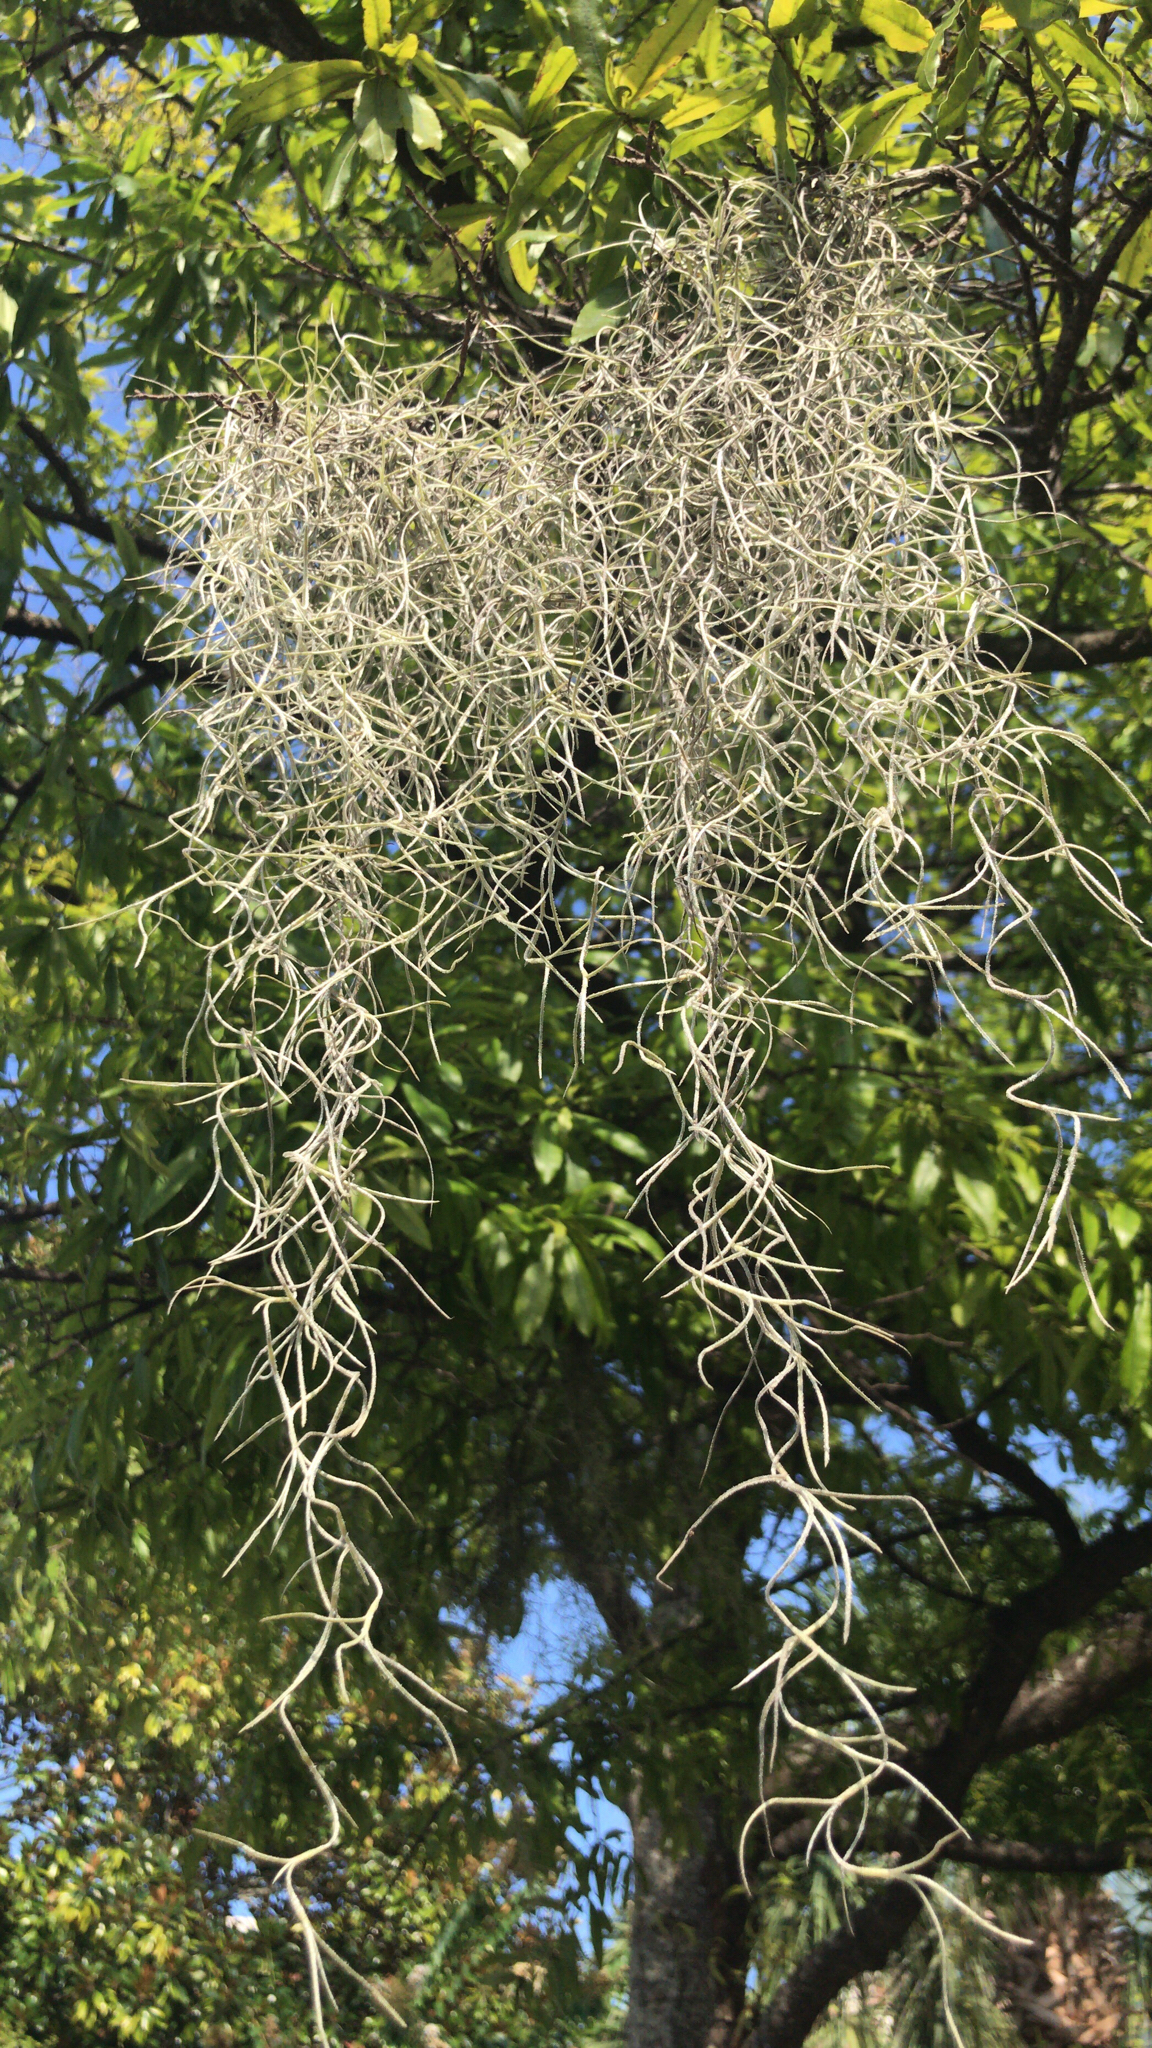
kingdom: Plantae
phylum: Tracheophyta
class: Liliopsida
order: Poales
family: Bromeliaceae
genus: Tillandsia
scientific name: Tillandsia usneoides
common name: Spanish moss
